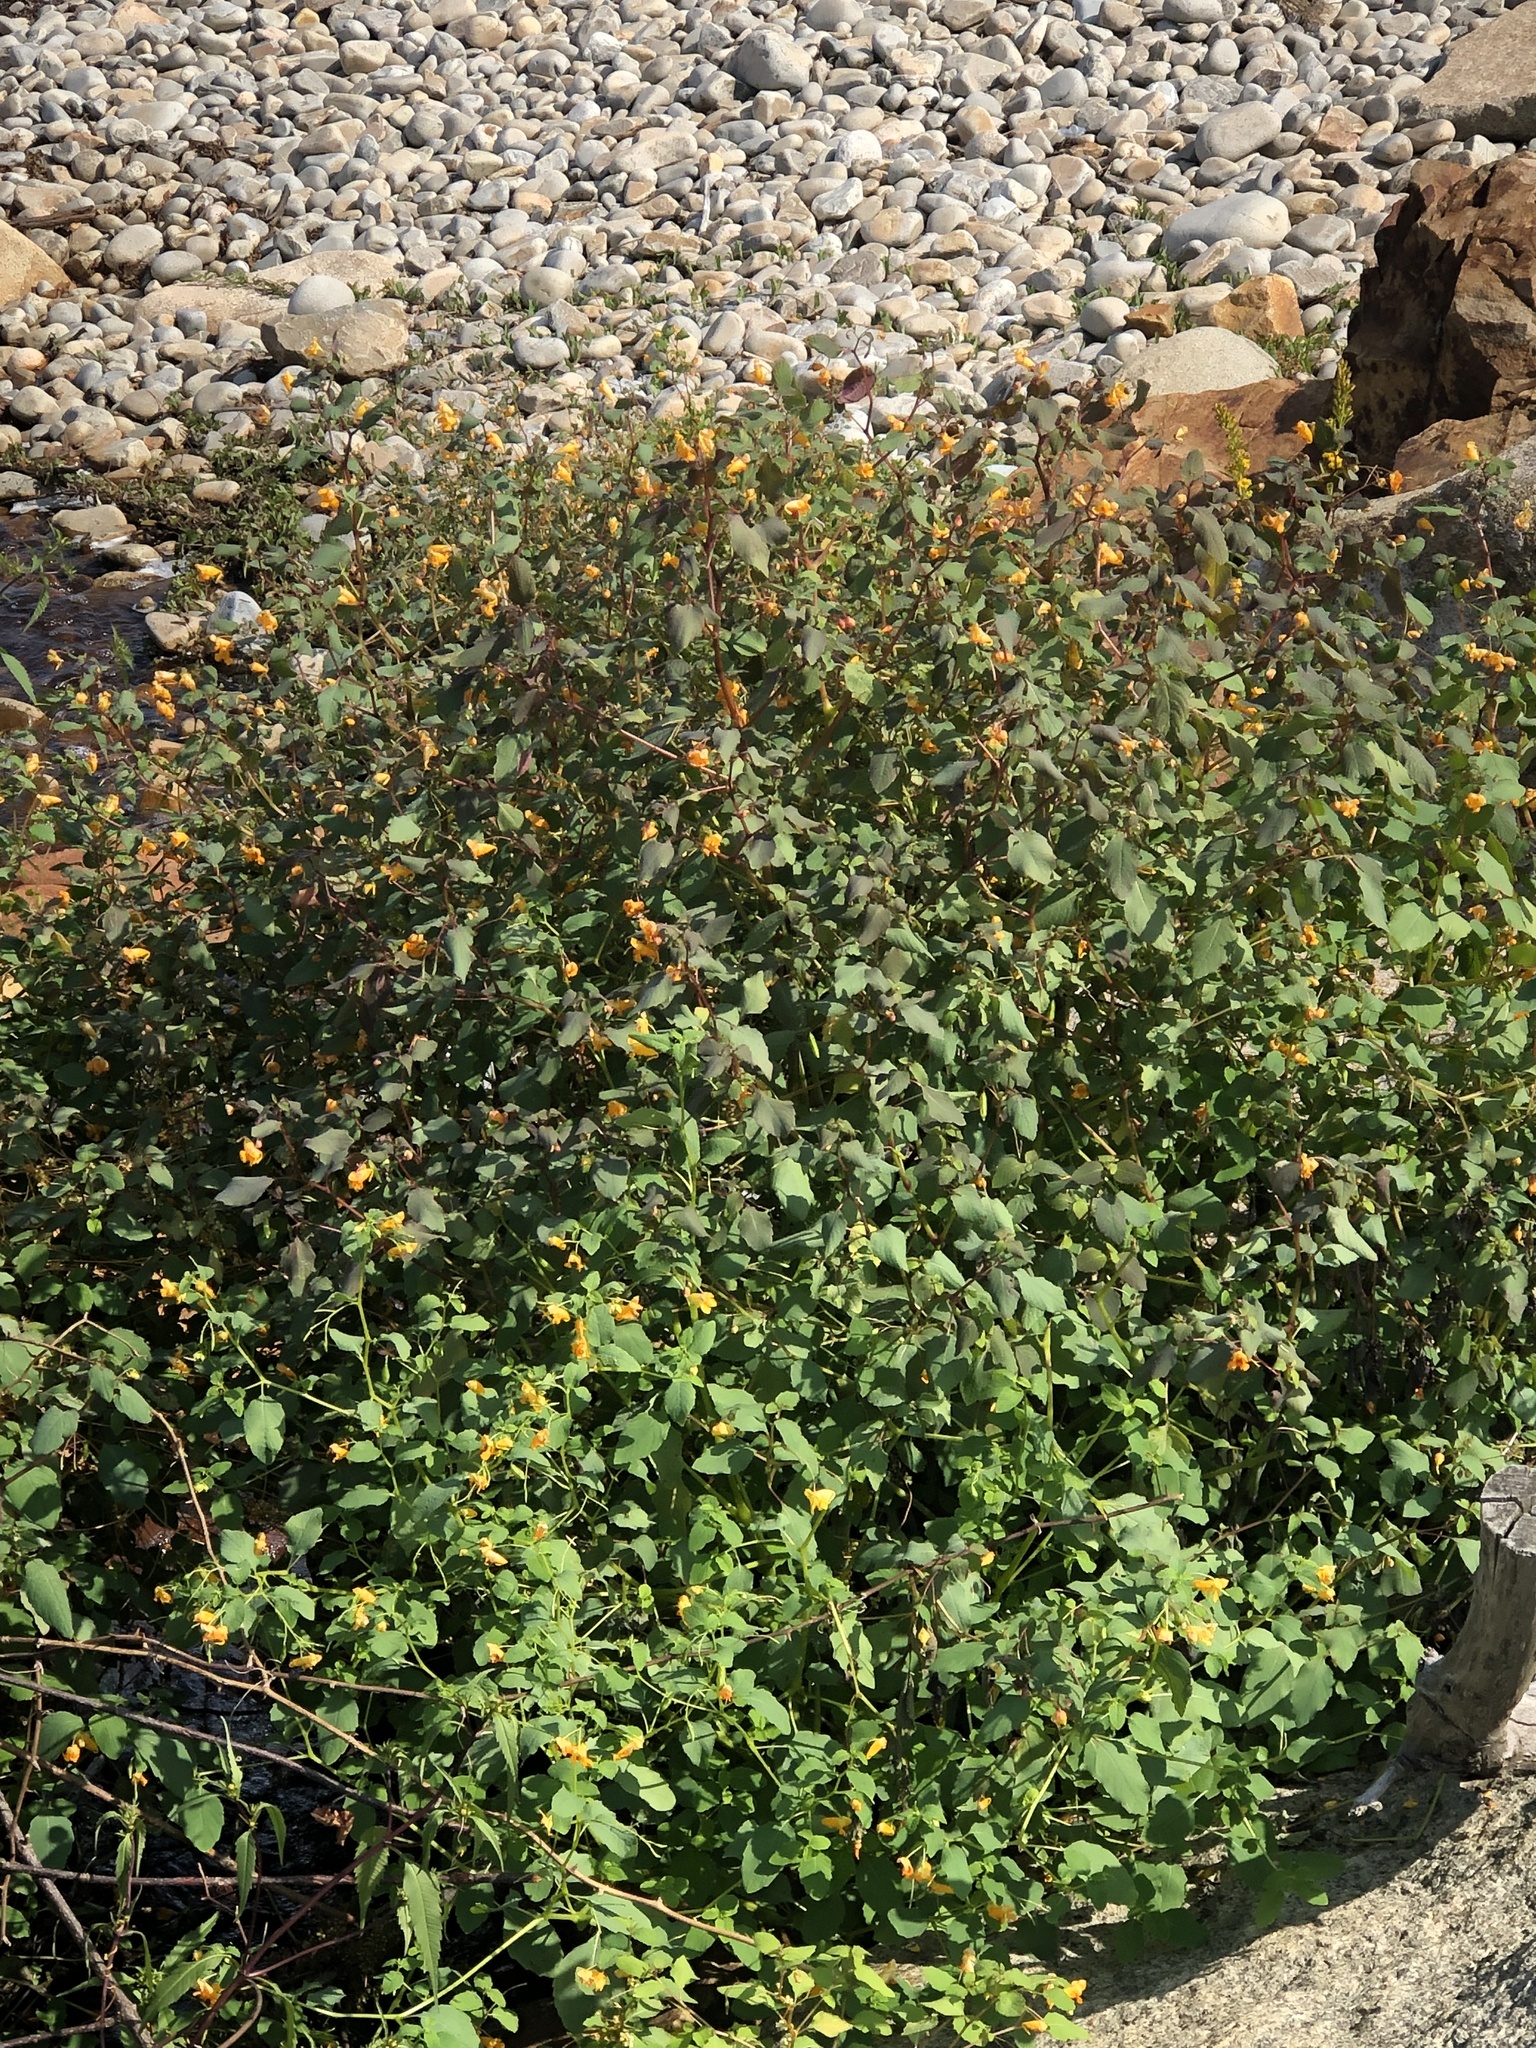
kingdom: Plantae
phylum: Tracheophyta
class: Magnoliopsida
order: Ericales
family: Balsaminaceae
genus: Impatiens
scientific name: Impatiens capensis
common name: Orange balsam
